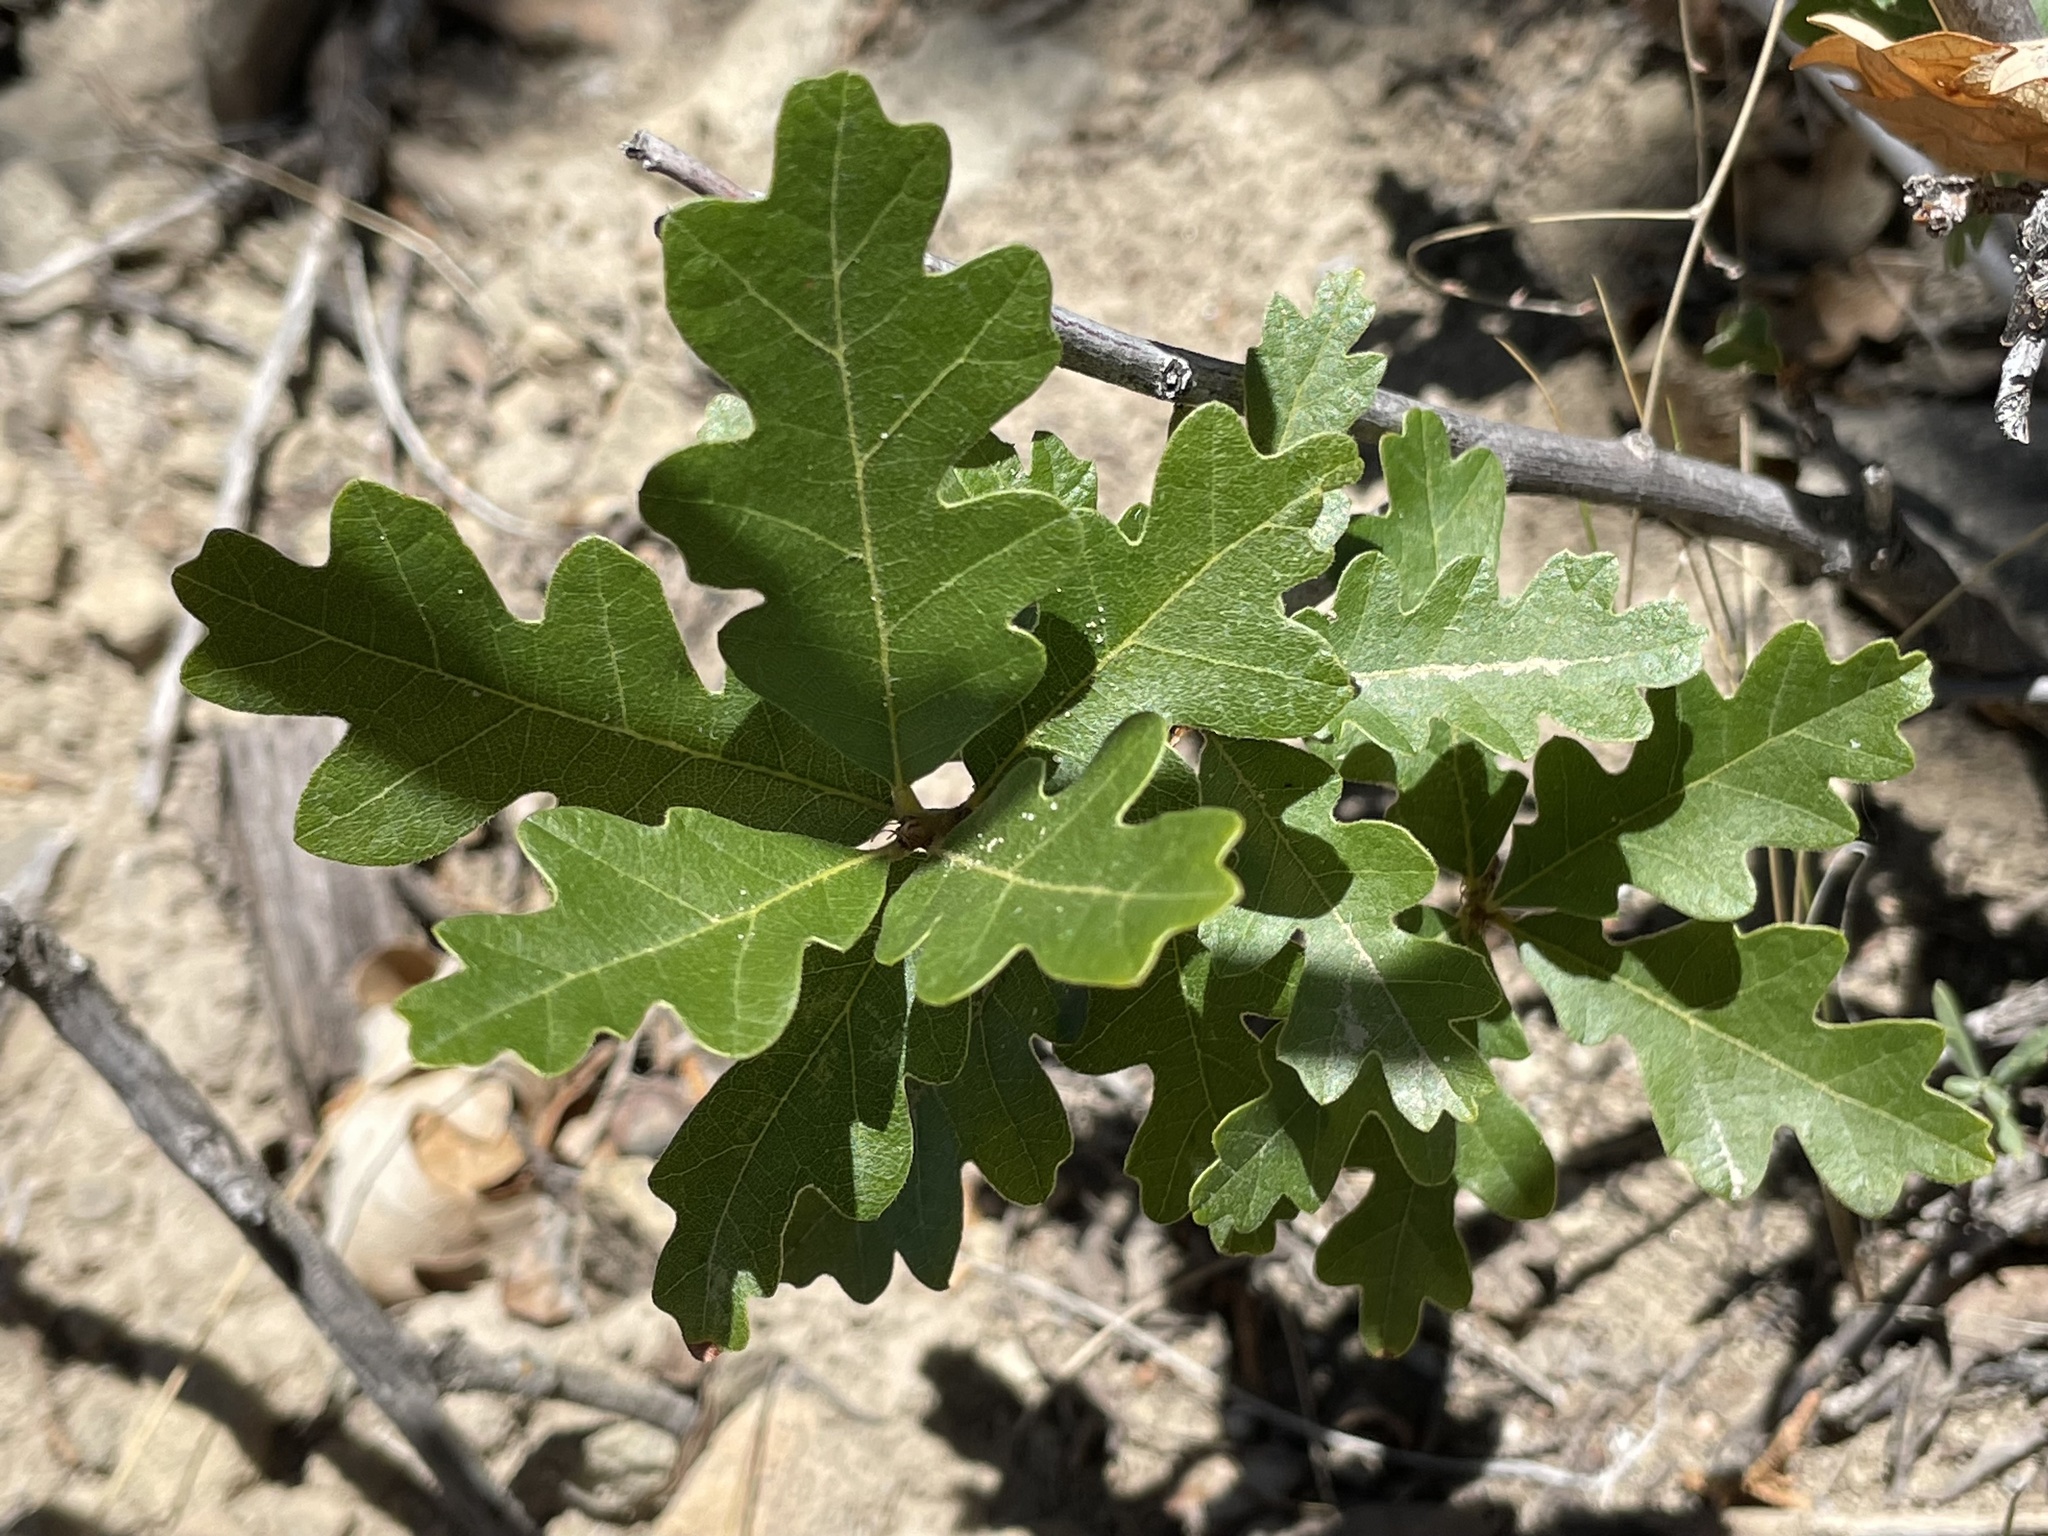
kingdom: Plantae
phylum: Tracheophyta
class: Magnoliopsida
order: Fagales
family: Fagaceae
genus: Quercus
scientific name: Quercus gambelii
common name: Gambel oak
